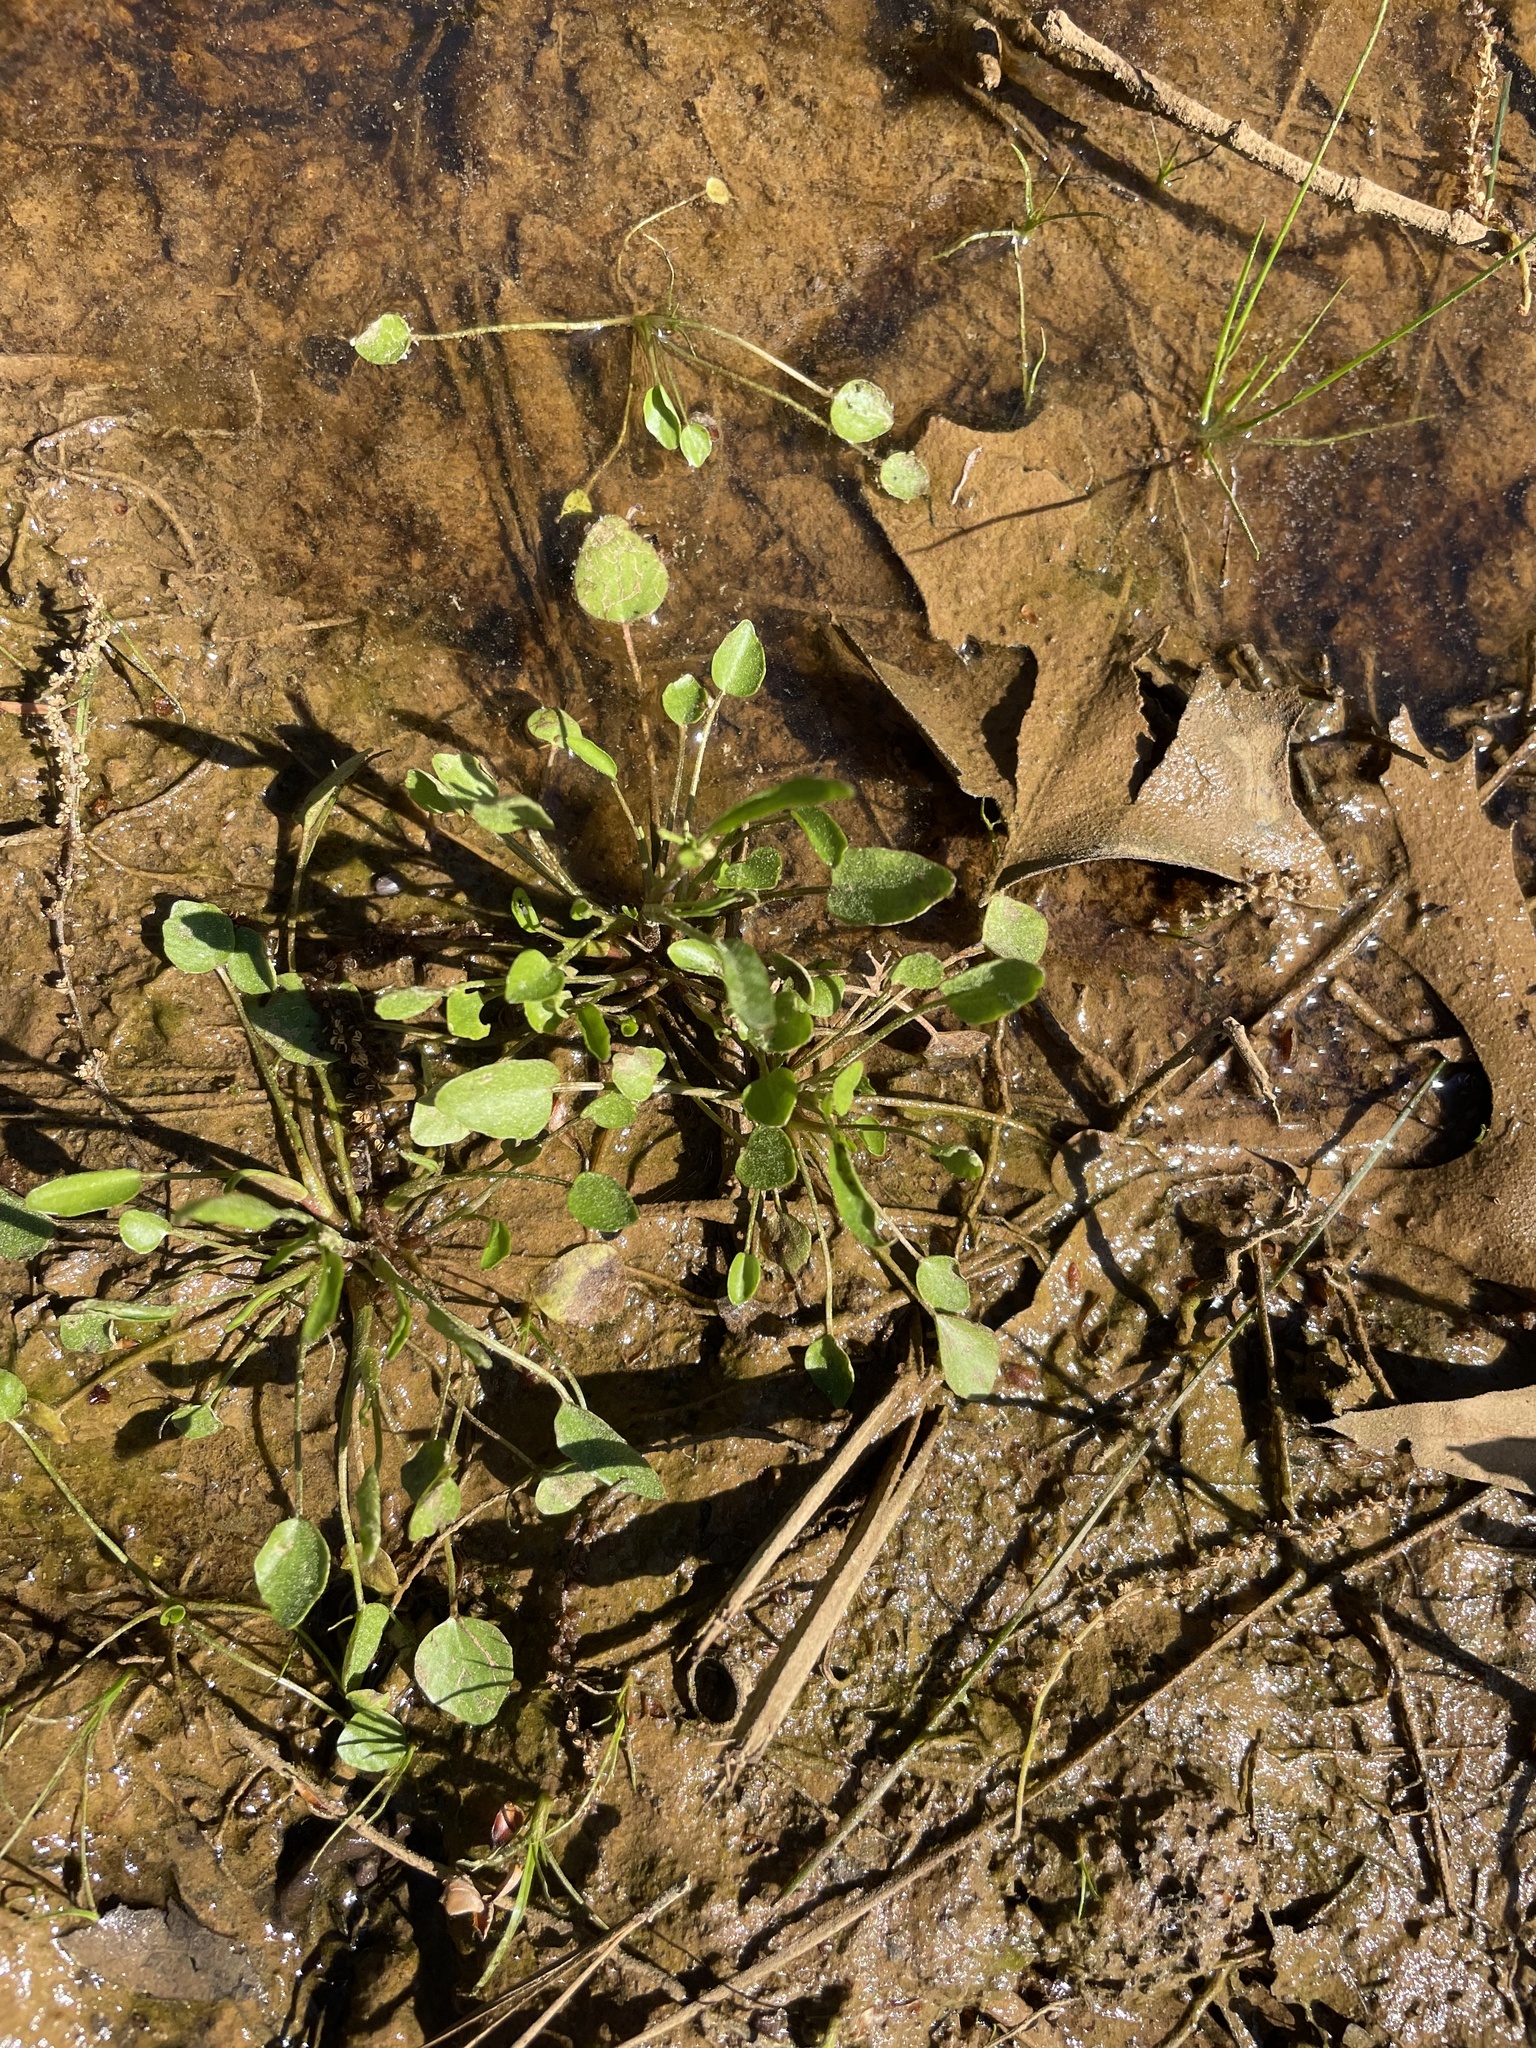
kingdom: Plantae
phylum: Tracheophyta
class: Magnoliopsida
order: Ranunculales
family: Ranunculaceae
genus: Ranunculus
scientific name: Ranunculus pusillus
